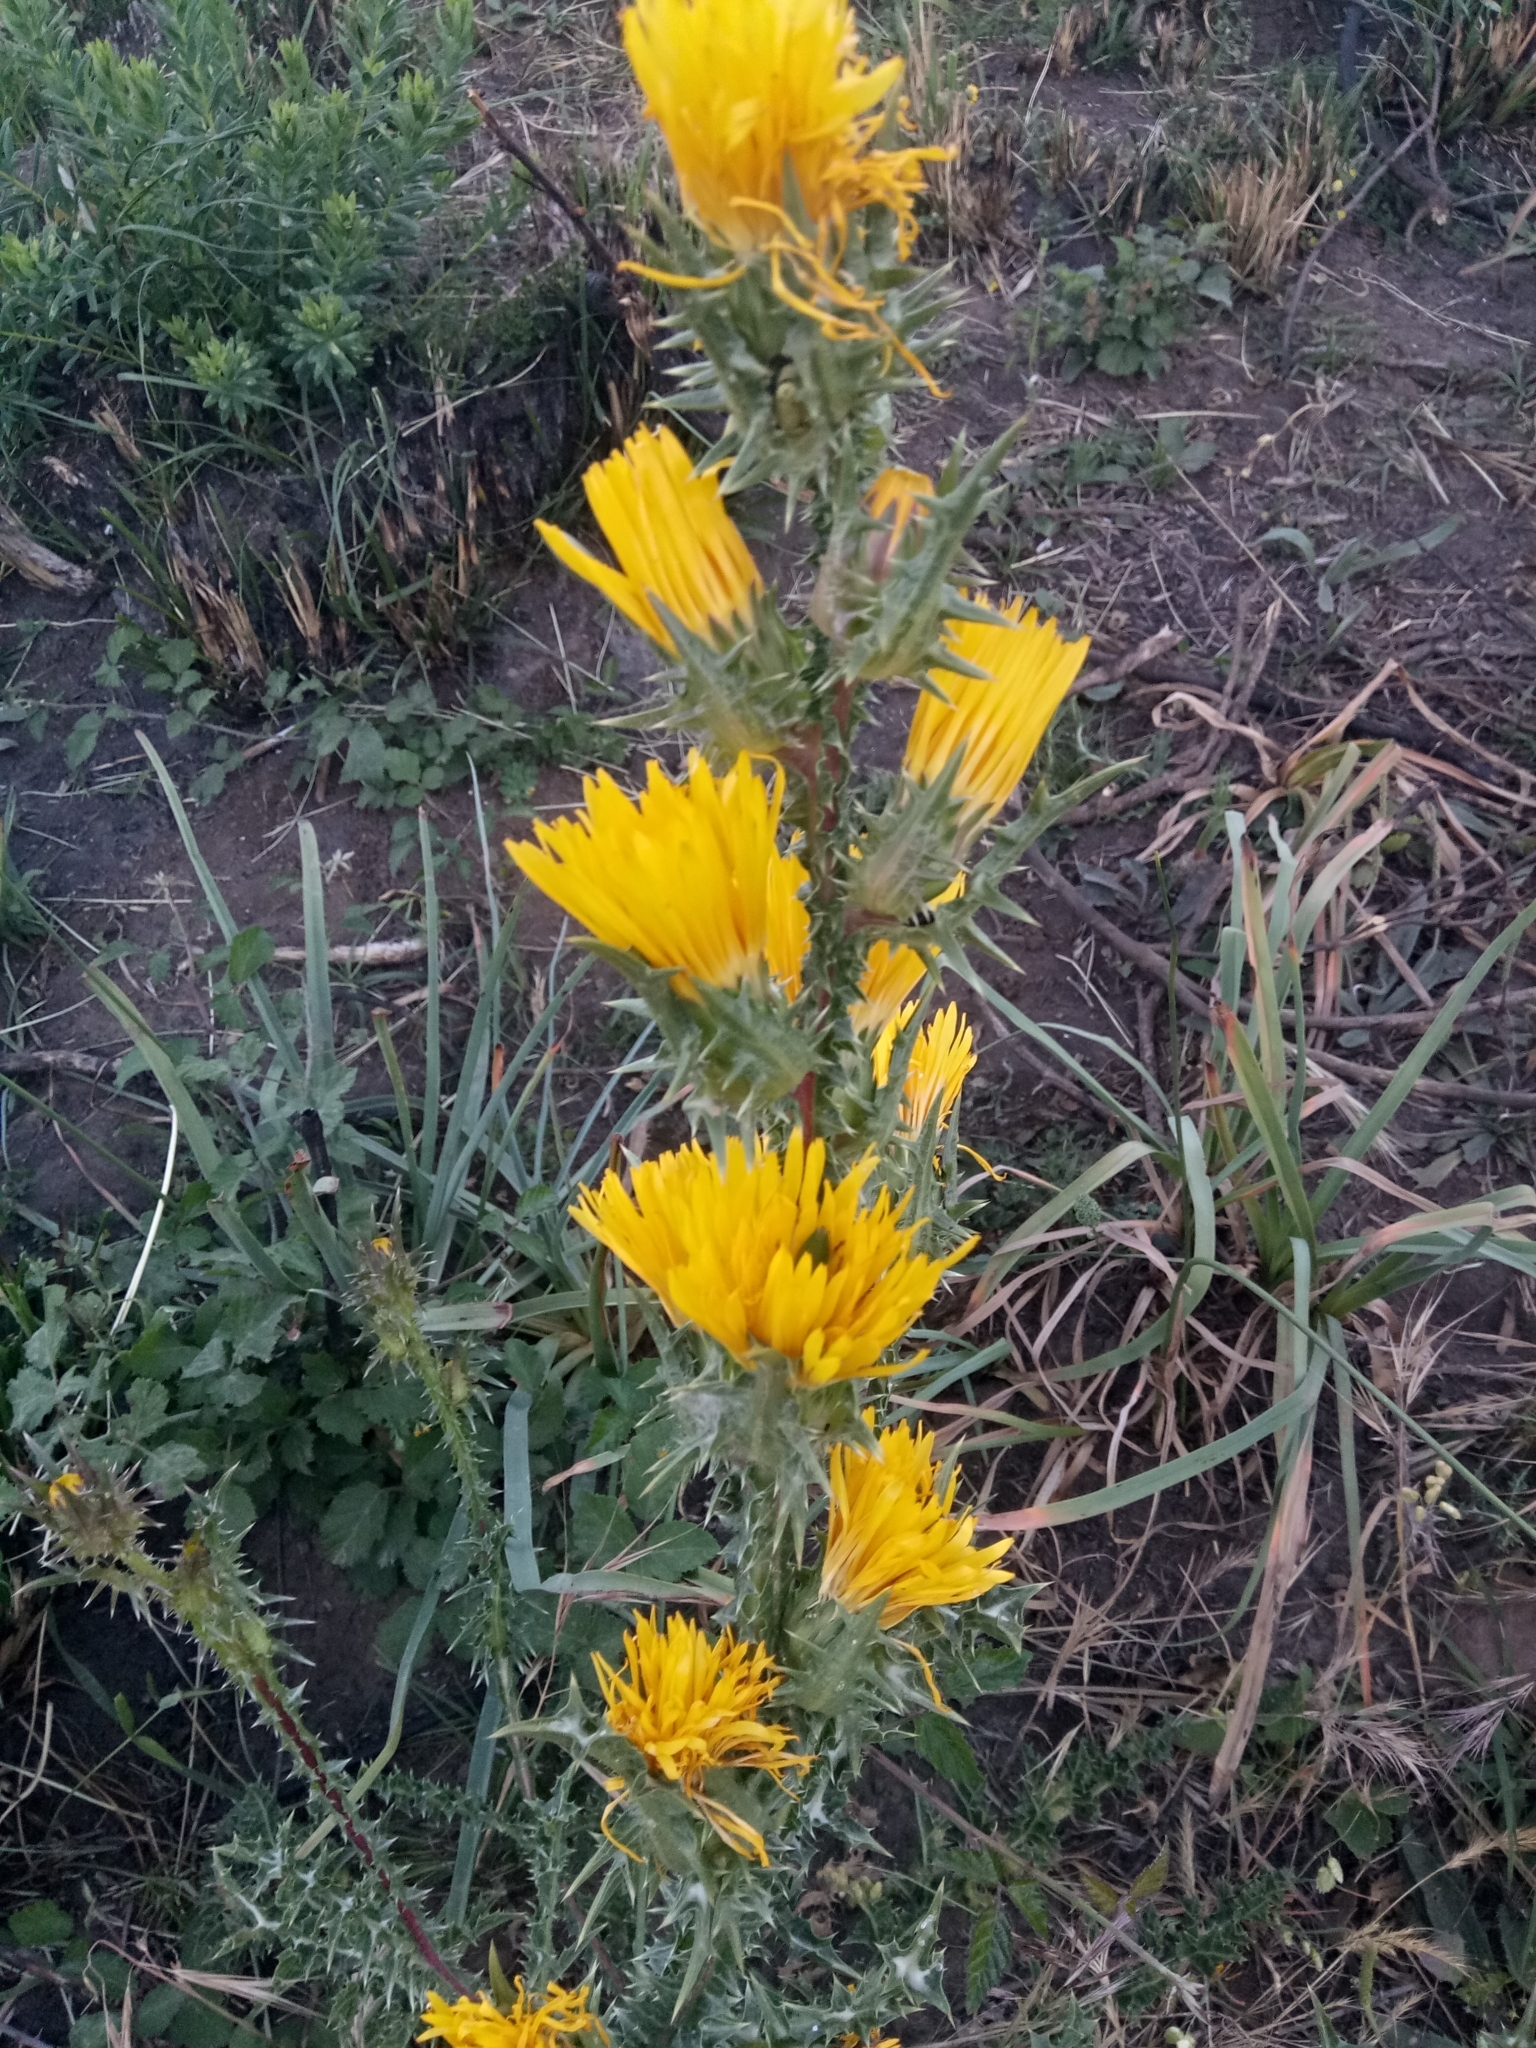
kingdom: Plantae
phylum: Tracheophyta
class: Magnoliopsida
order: Asterales
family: Asteraceae
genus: Scolymus
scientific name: Scolymus grandiflorus
